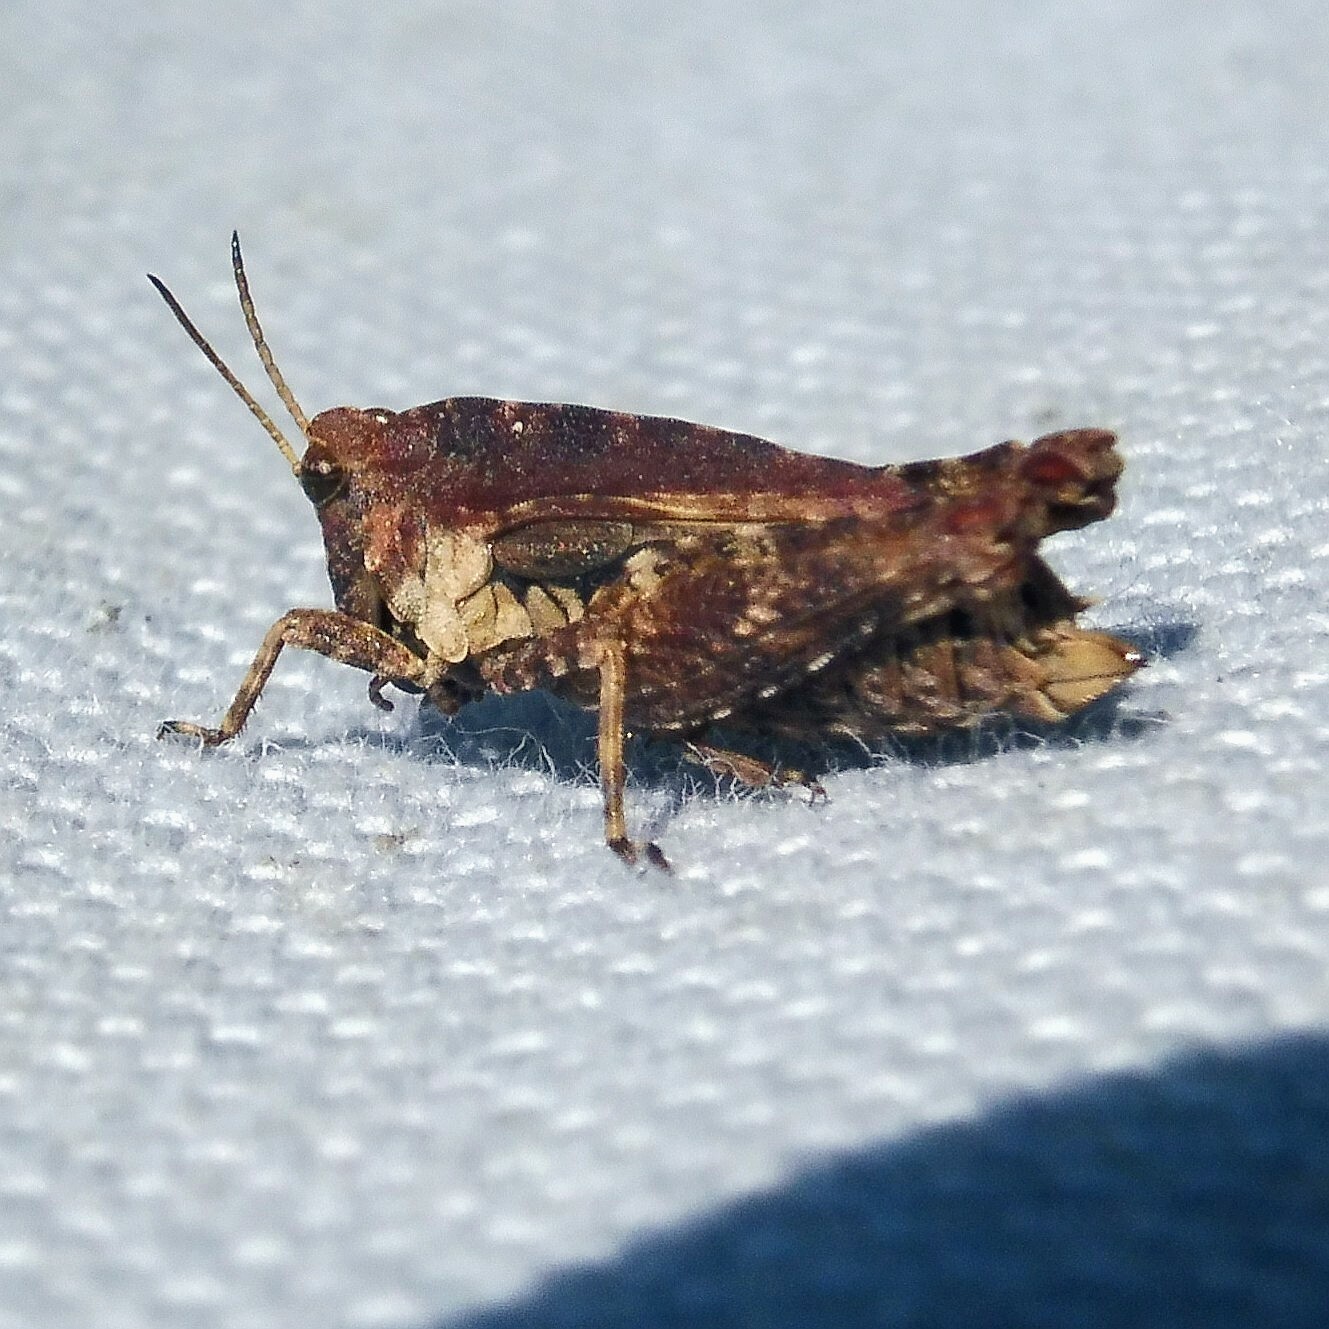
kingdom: Animalia
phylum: Arthropoda
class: Insecta
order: Orthoptera
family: Tetrigidae
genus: Tetrix
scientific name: Tetrix undulata
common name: Common groundhopper
